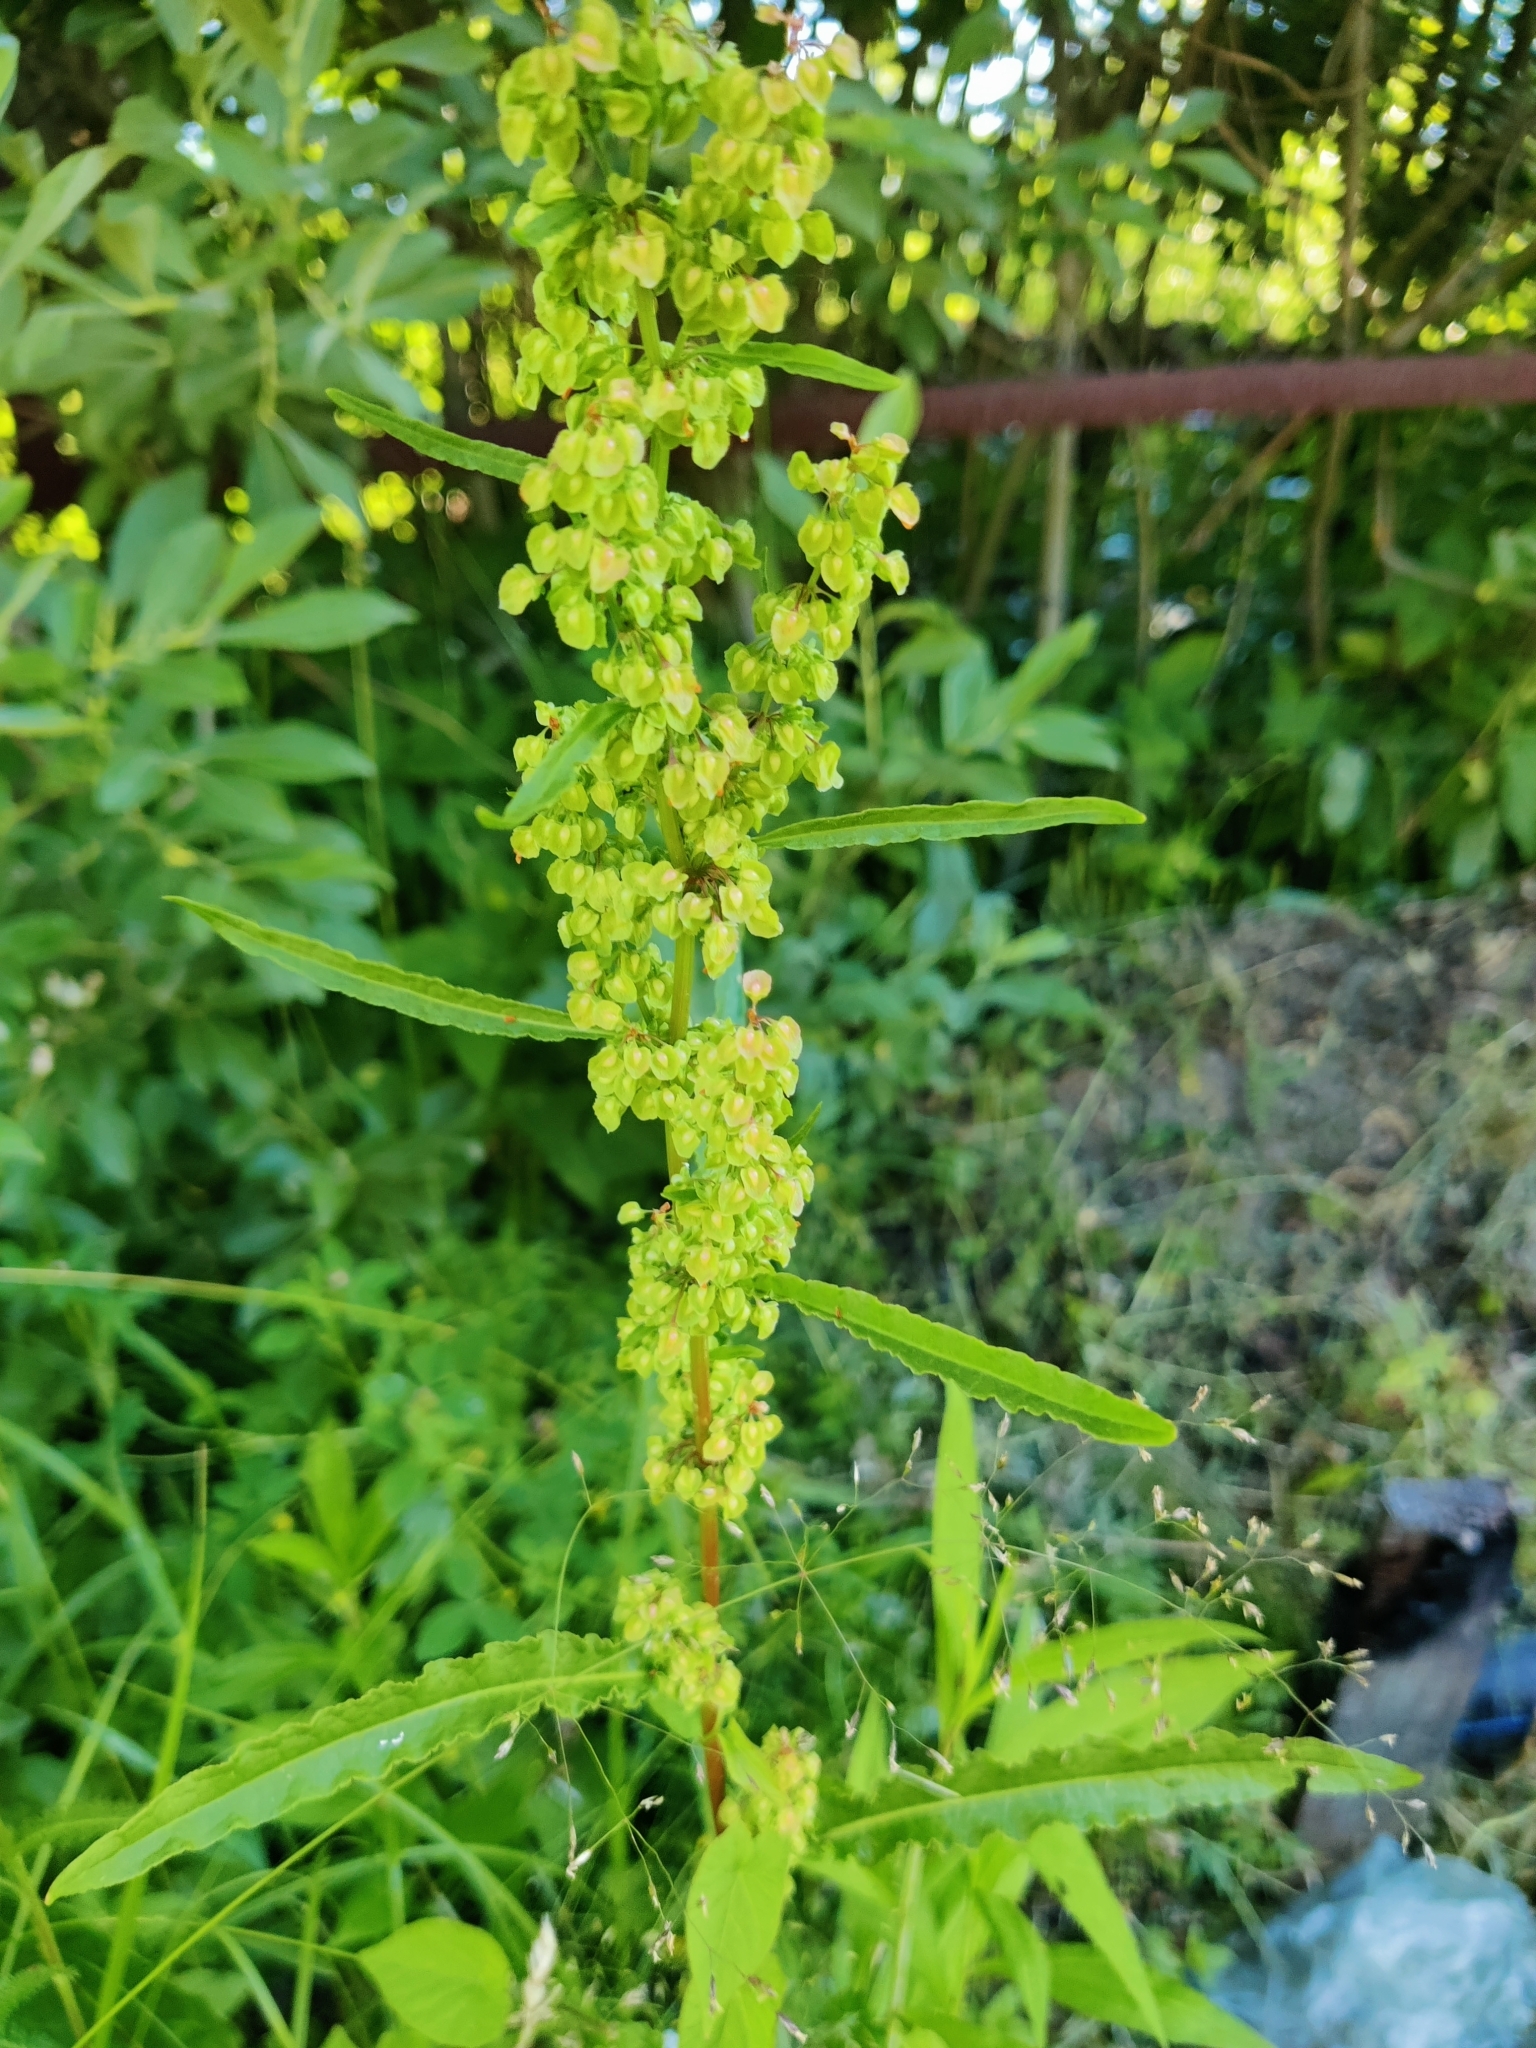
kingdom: Plantae
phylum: Tracheophyta
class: Magnoliopsida
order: Caryophyllales
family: Polygonaceae
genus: Rumex
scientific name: Rumex crispus
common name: Curled dock
